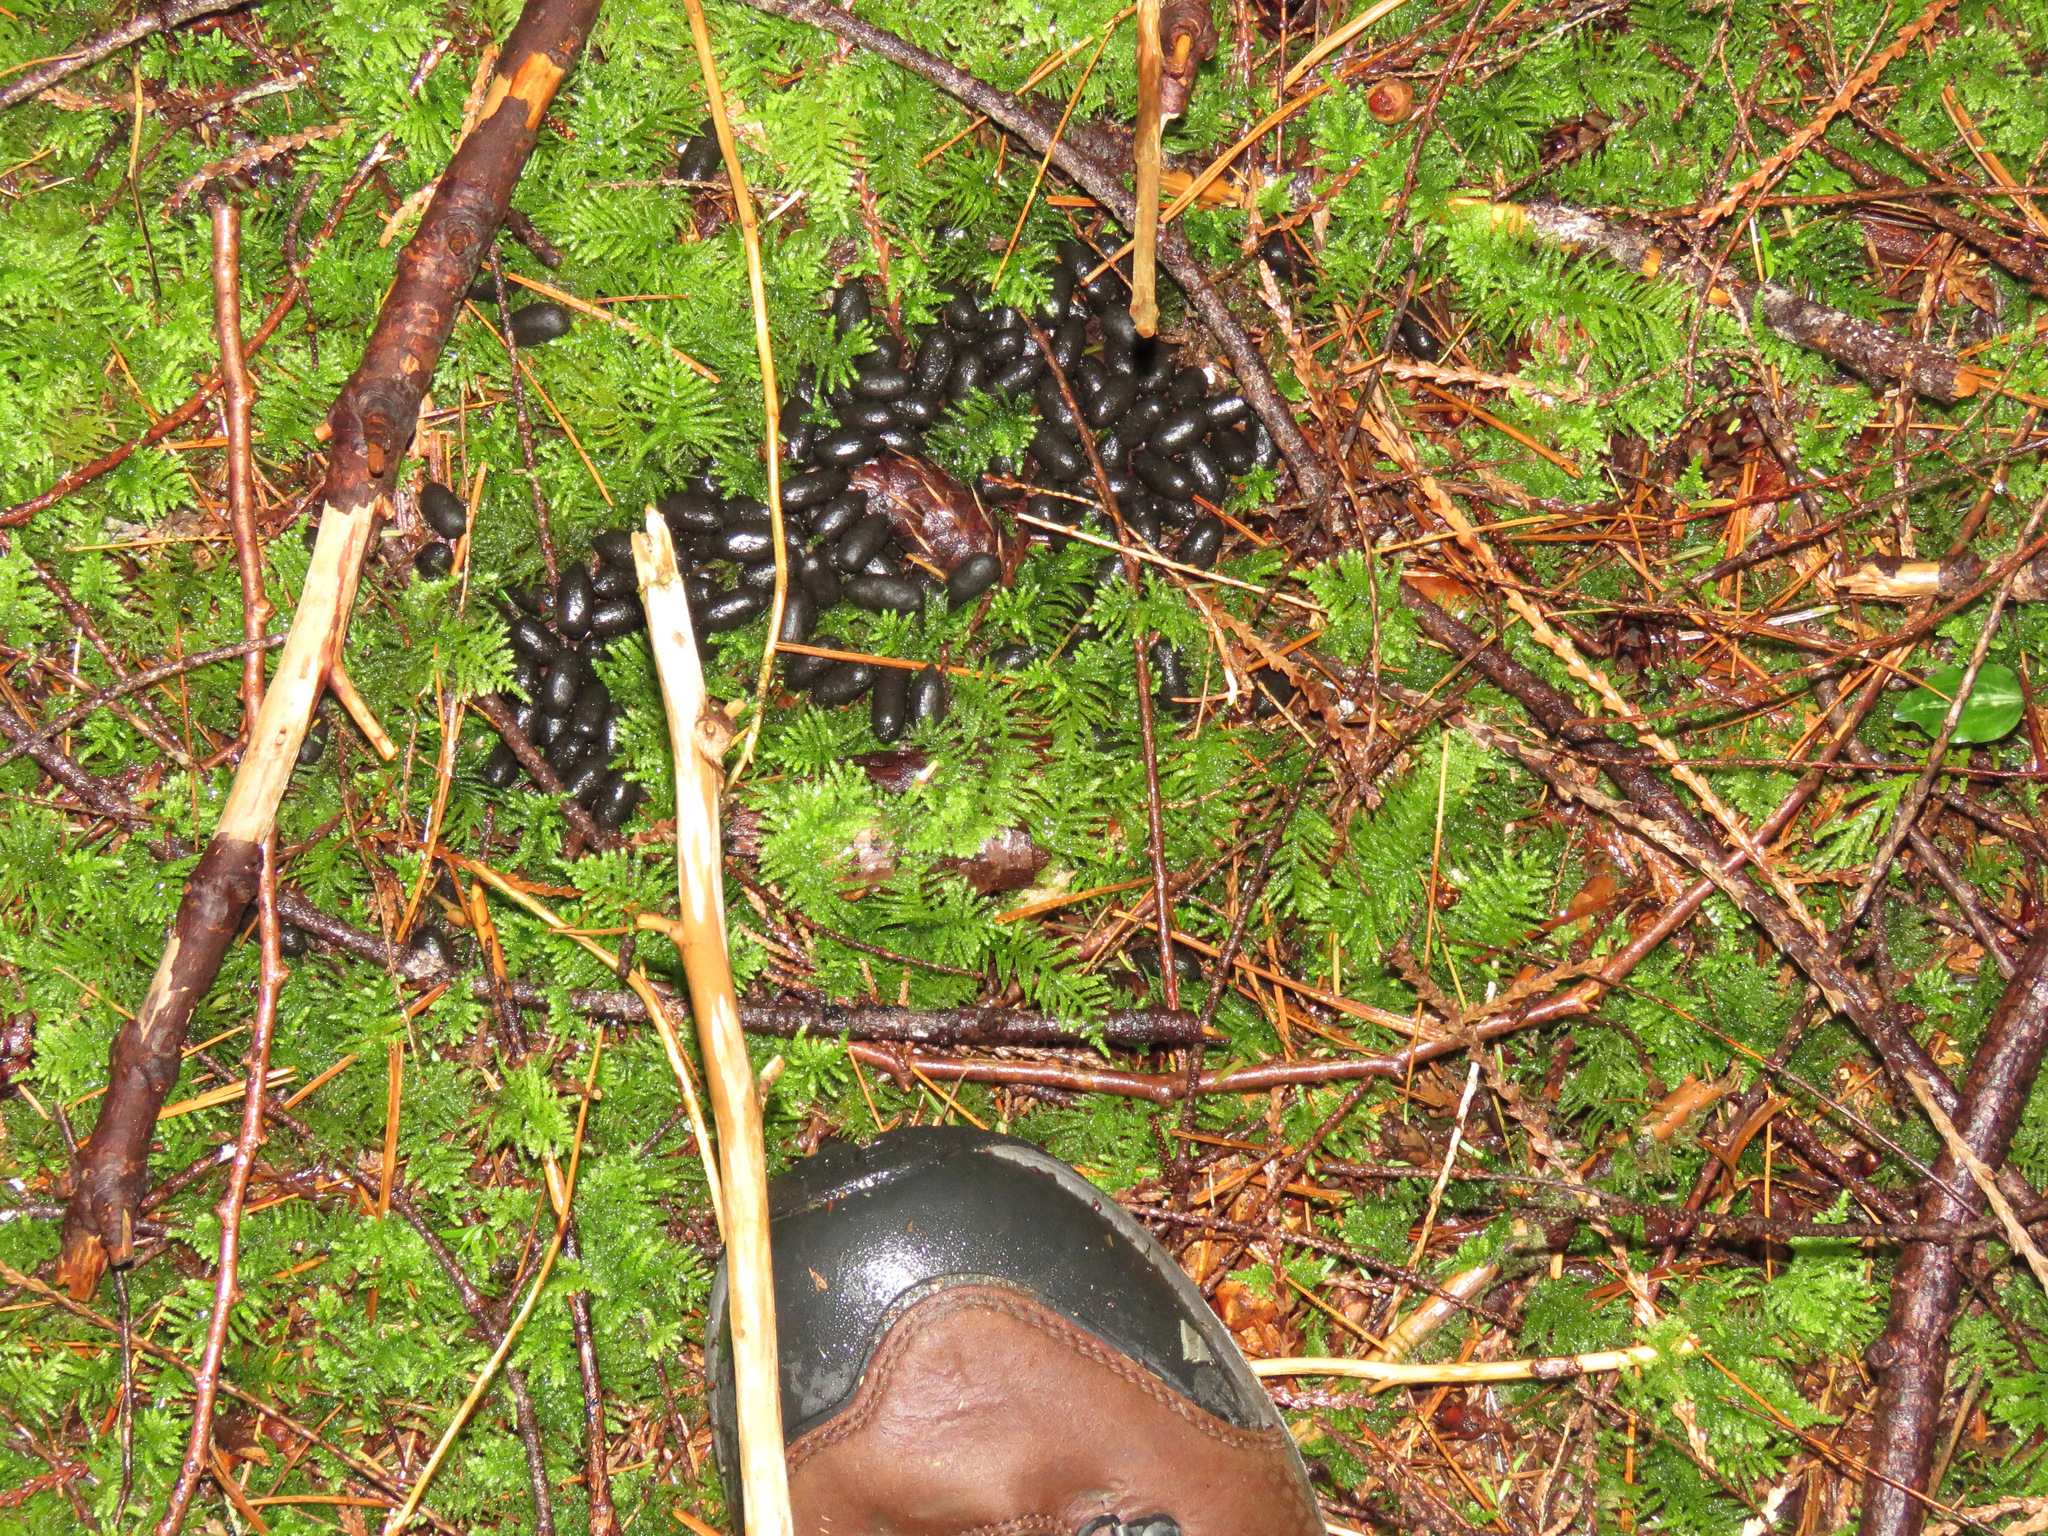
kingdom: Animalia
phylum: Chordata
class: Mammalia
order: Artiodactyla
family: Cervidae
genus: Odocoileus
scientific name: Odocoileus hemionus
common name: Mule deer
